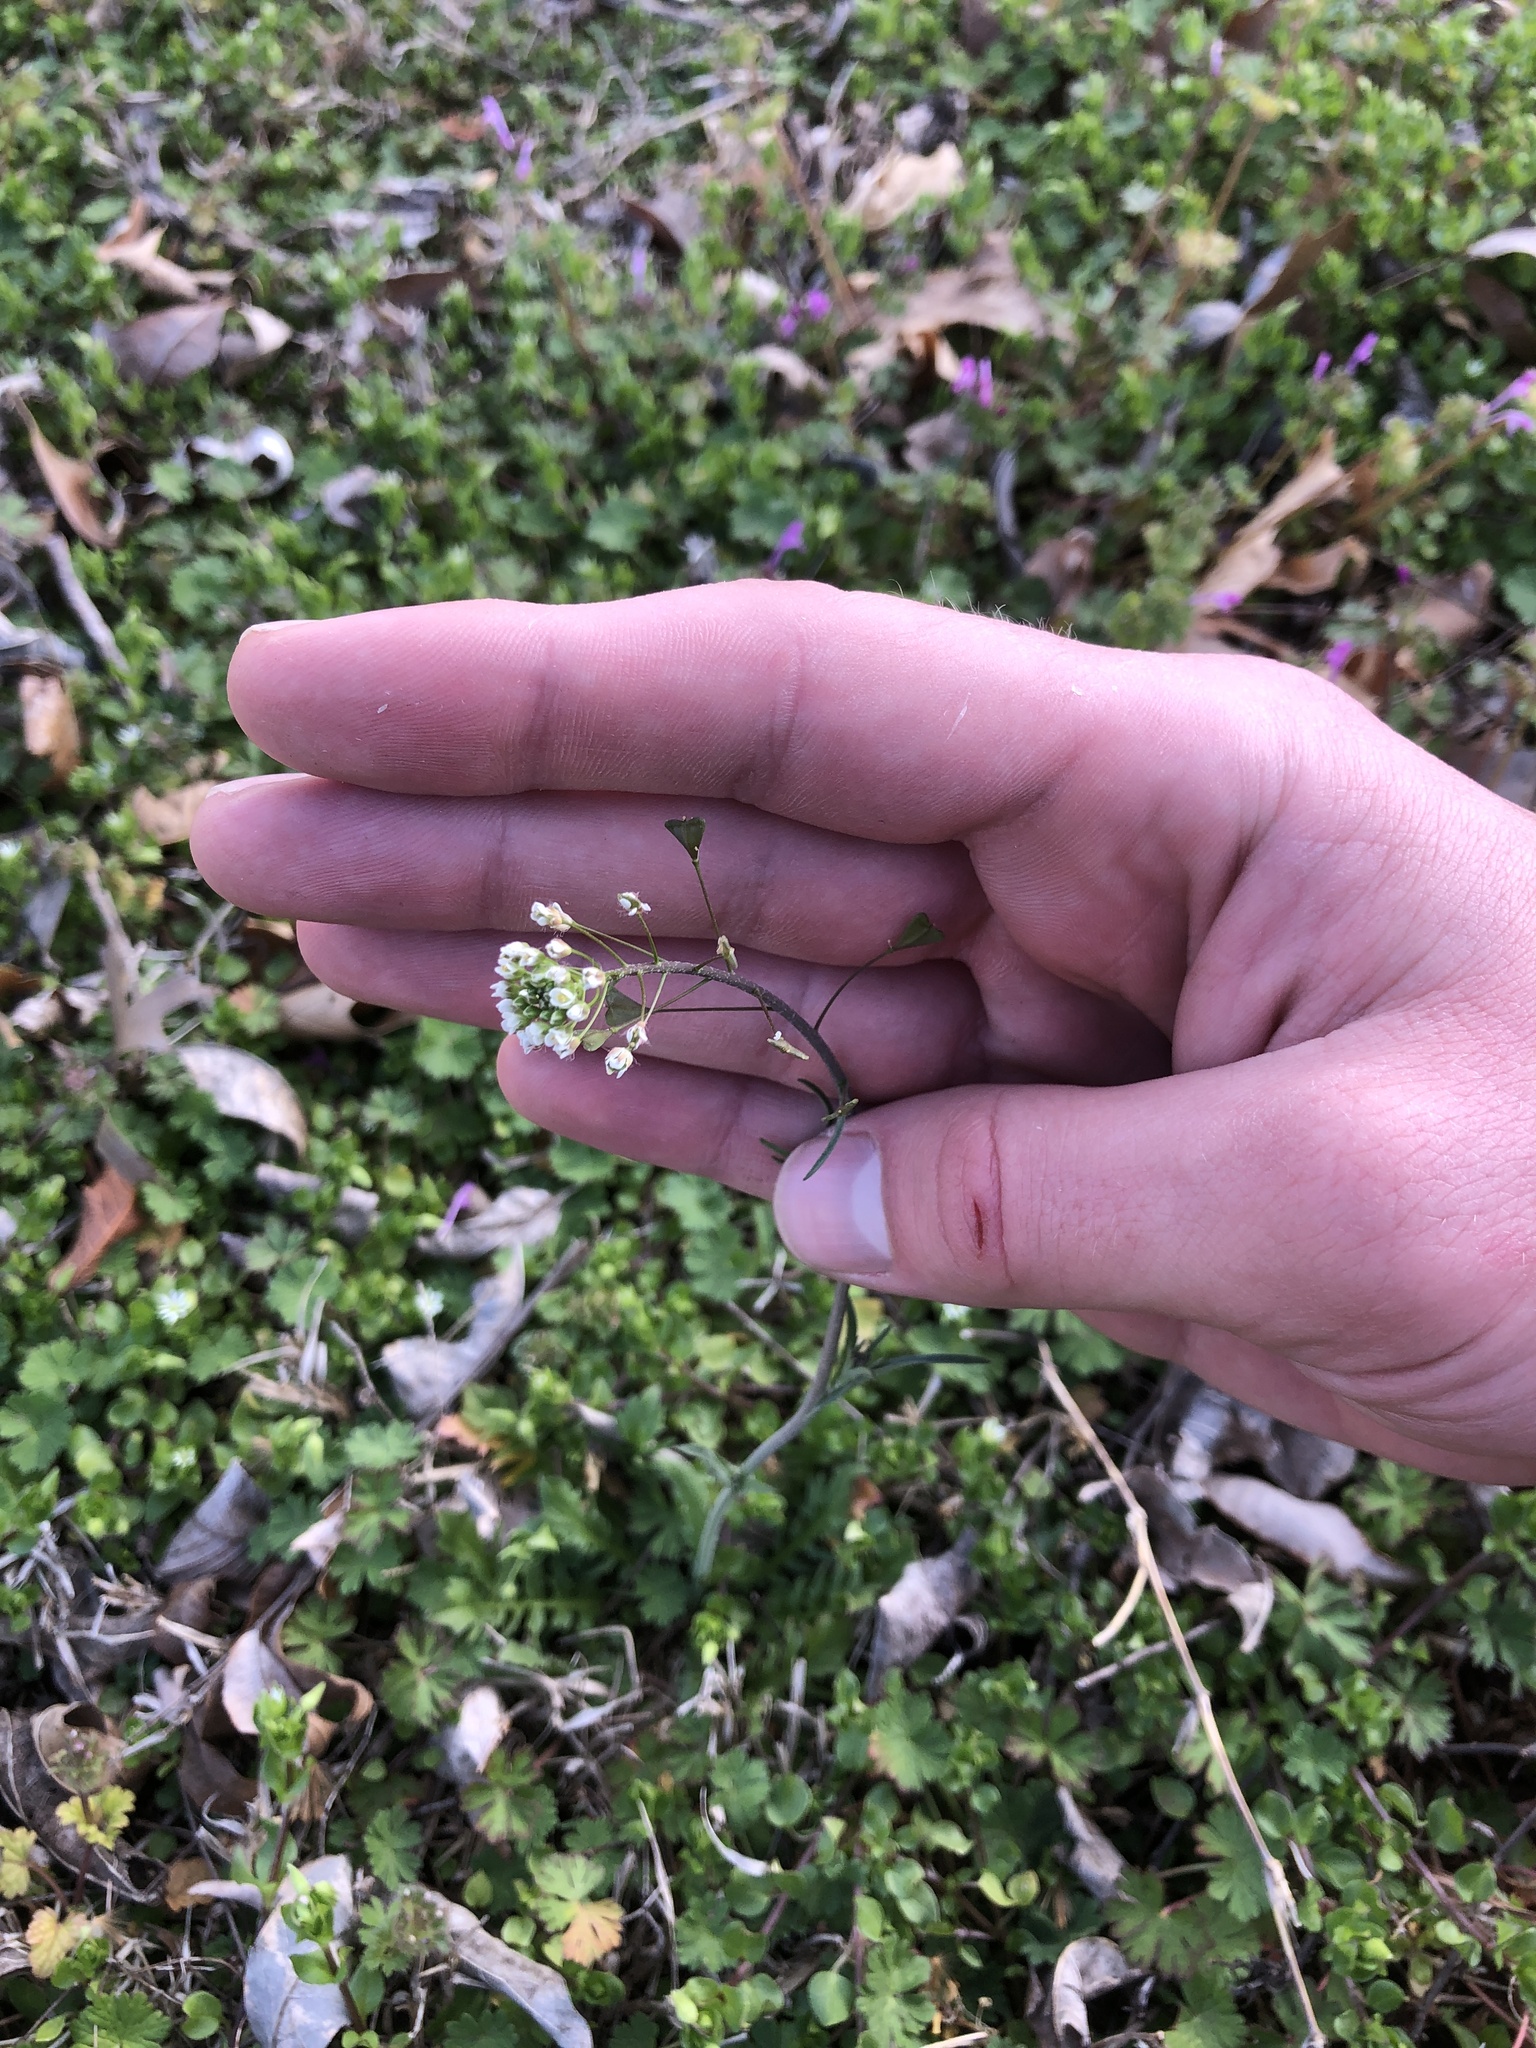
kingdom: Plantae
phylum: Tracheophyta
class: Magnoliopsida
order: Brassicales
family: Brassicaceae
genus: Capsella
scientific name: Capsella bursa-pastoris
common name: Shepherd's purse
